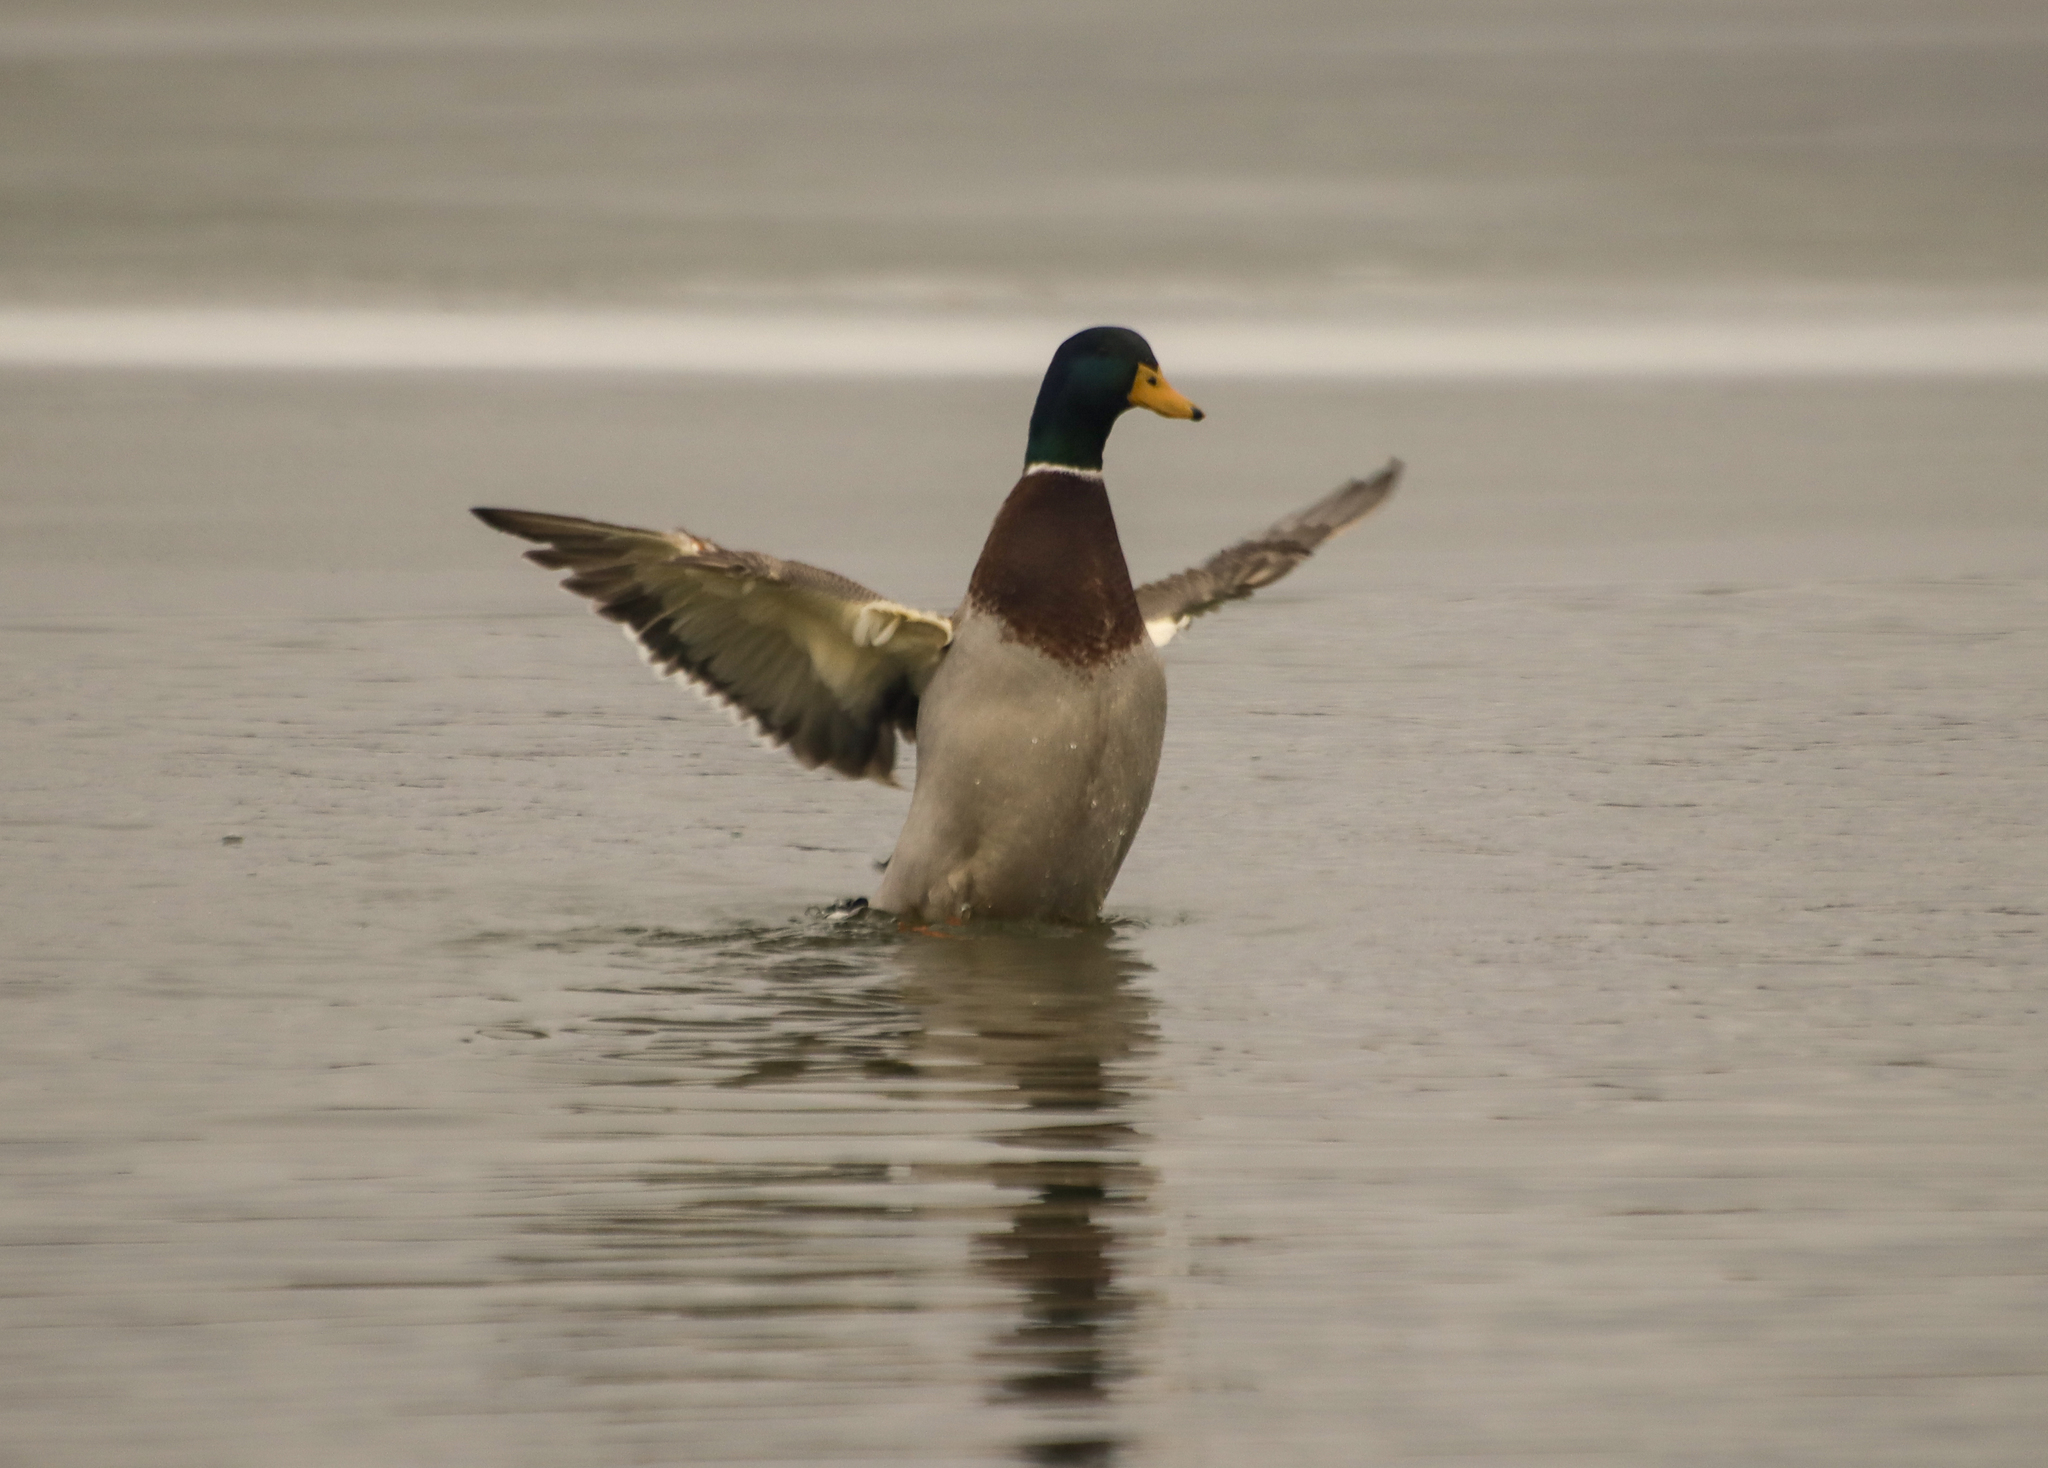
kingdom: Animalia
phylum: Chordata
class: Aves
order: Anseriformes
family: Anatidae
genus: Anas
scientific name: Anas platyrhynchos
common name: Mallard
